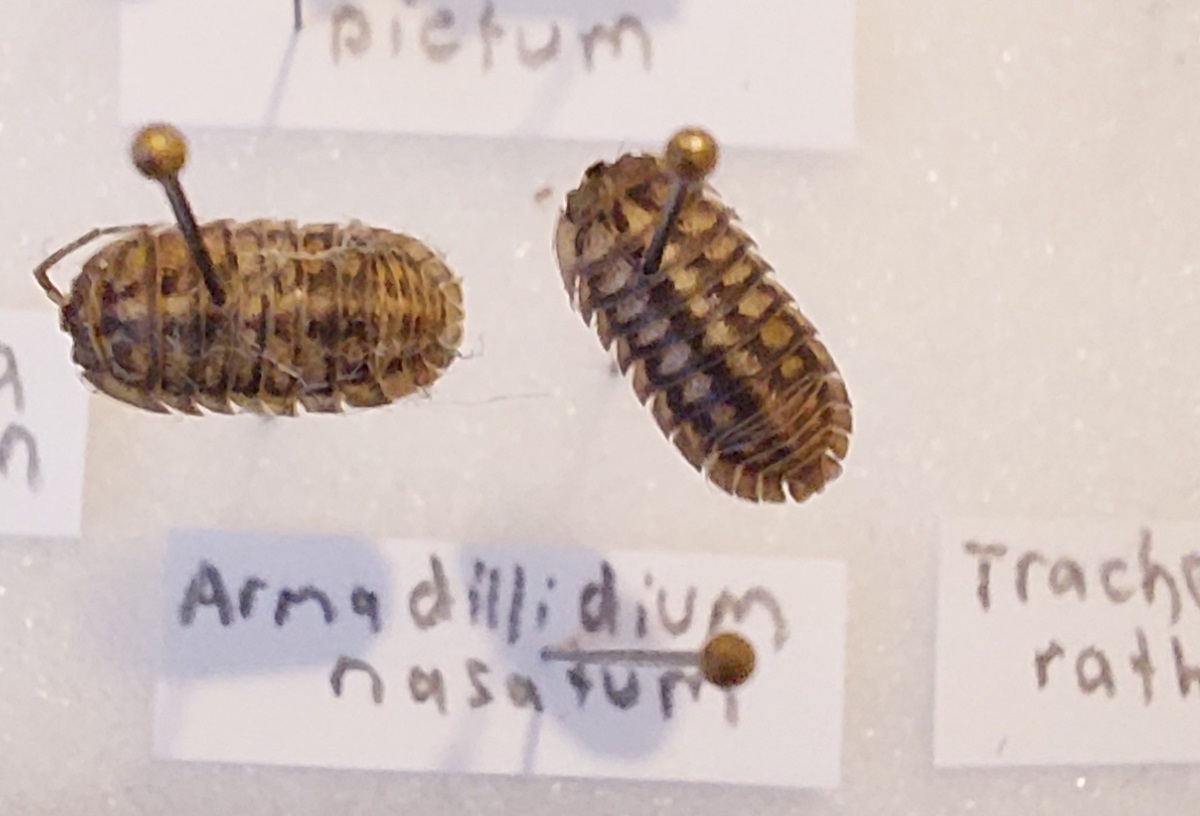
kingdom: Animalia
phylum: Arthropoda
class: Malacostraca
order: Isopoda
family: Armadillidiidae
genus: Armadillidium
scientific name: Armadillidium nasatum
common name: Isopod
